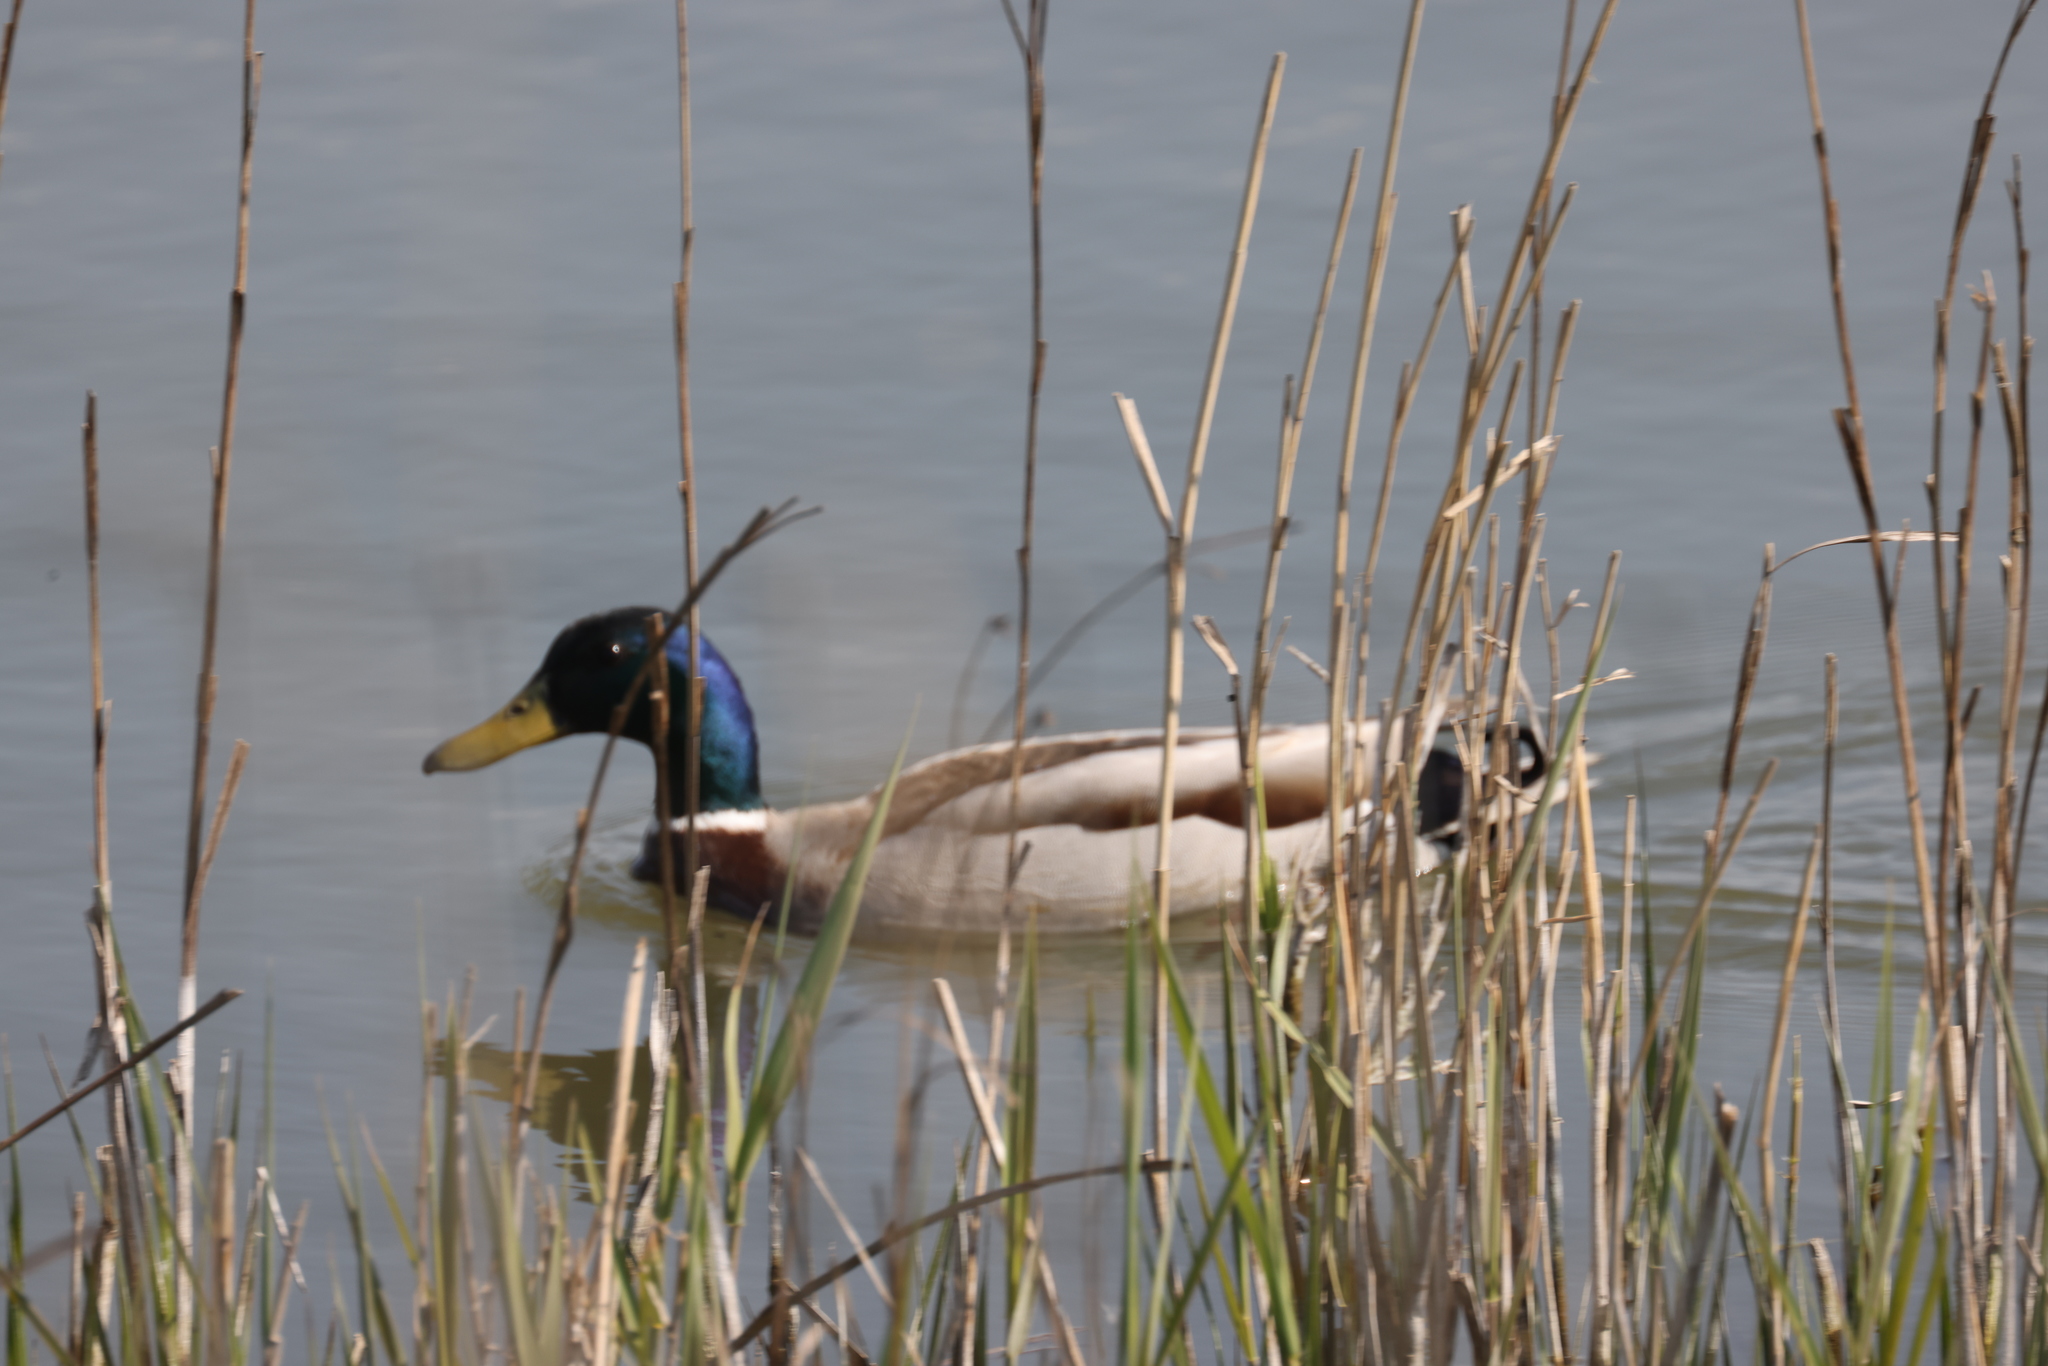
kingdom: Animalia
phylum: Chordata
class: Aves
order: Anseriformes
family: Anatidae
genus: Anas
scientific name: Anas platyrhynchos
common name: Mallard
